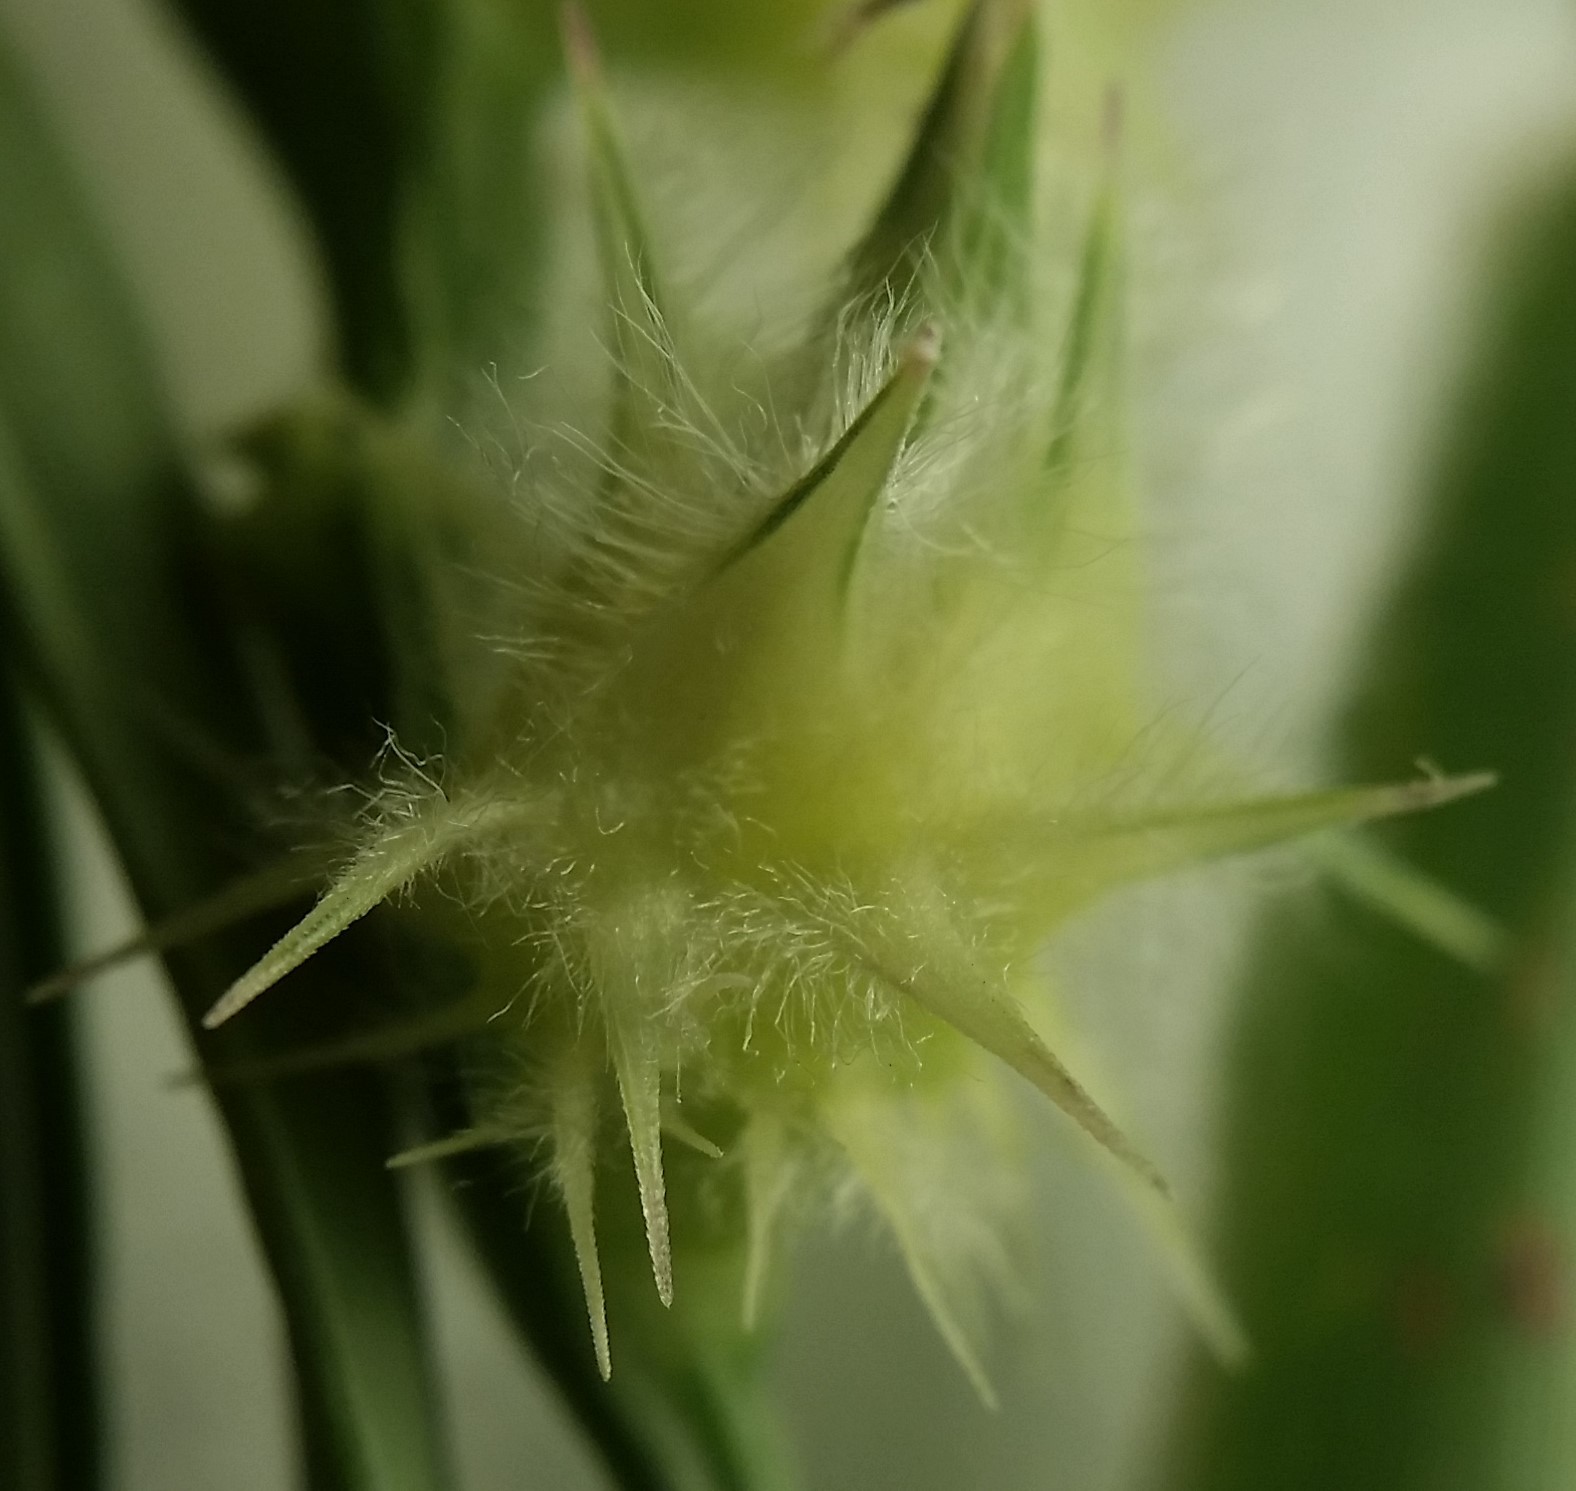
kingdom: Plantae
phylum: Tracheophyta
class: Liliopsida
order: Poales
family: Poaceae
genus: Cenchrus
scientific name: Cenchrus tribuloides
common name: Dune sandbur
